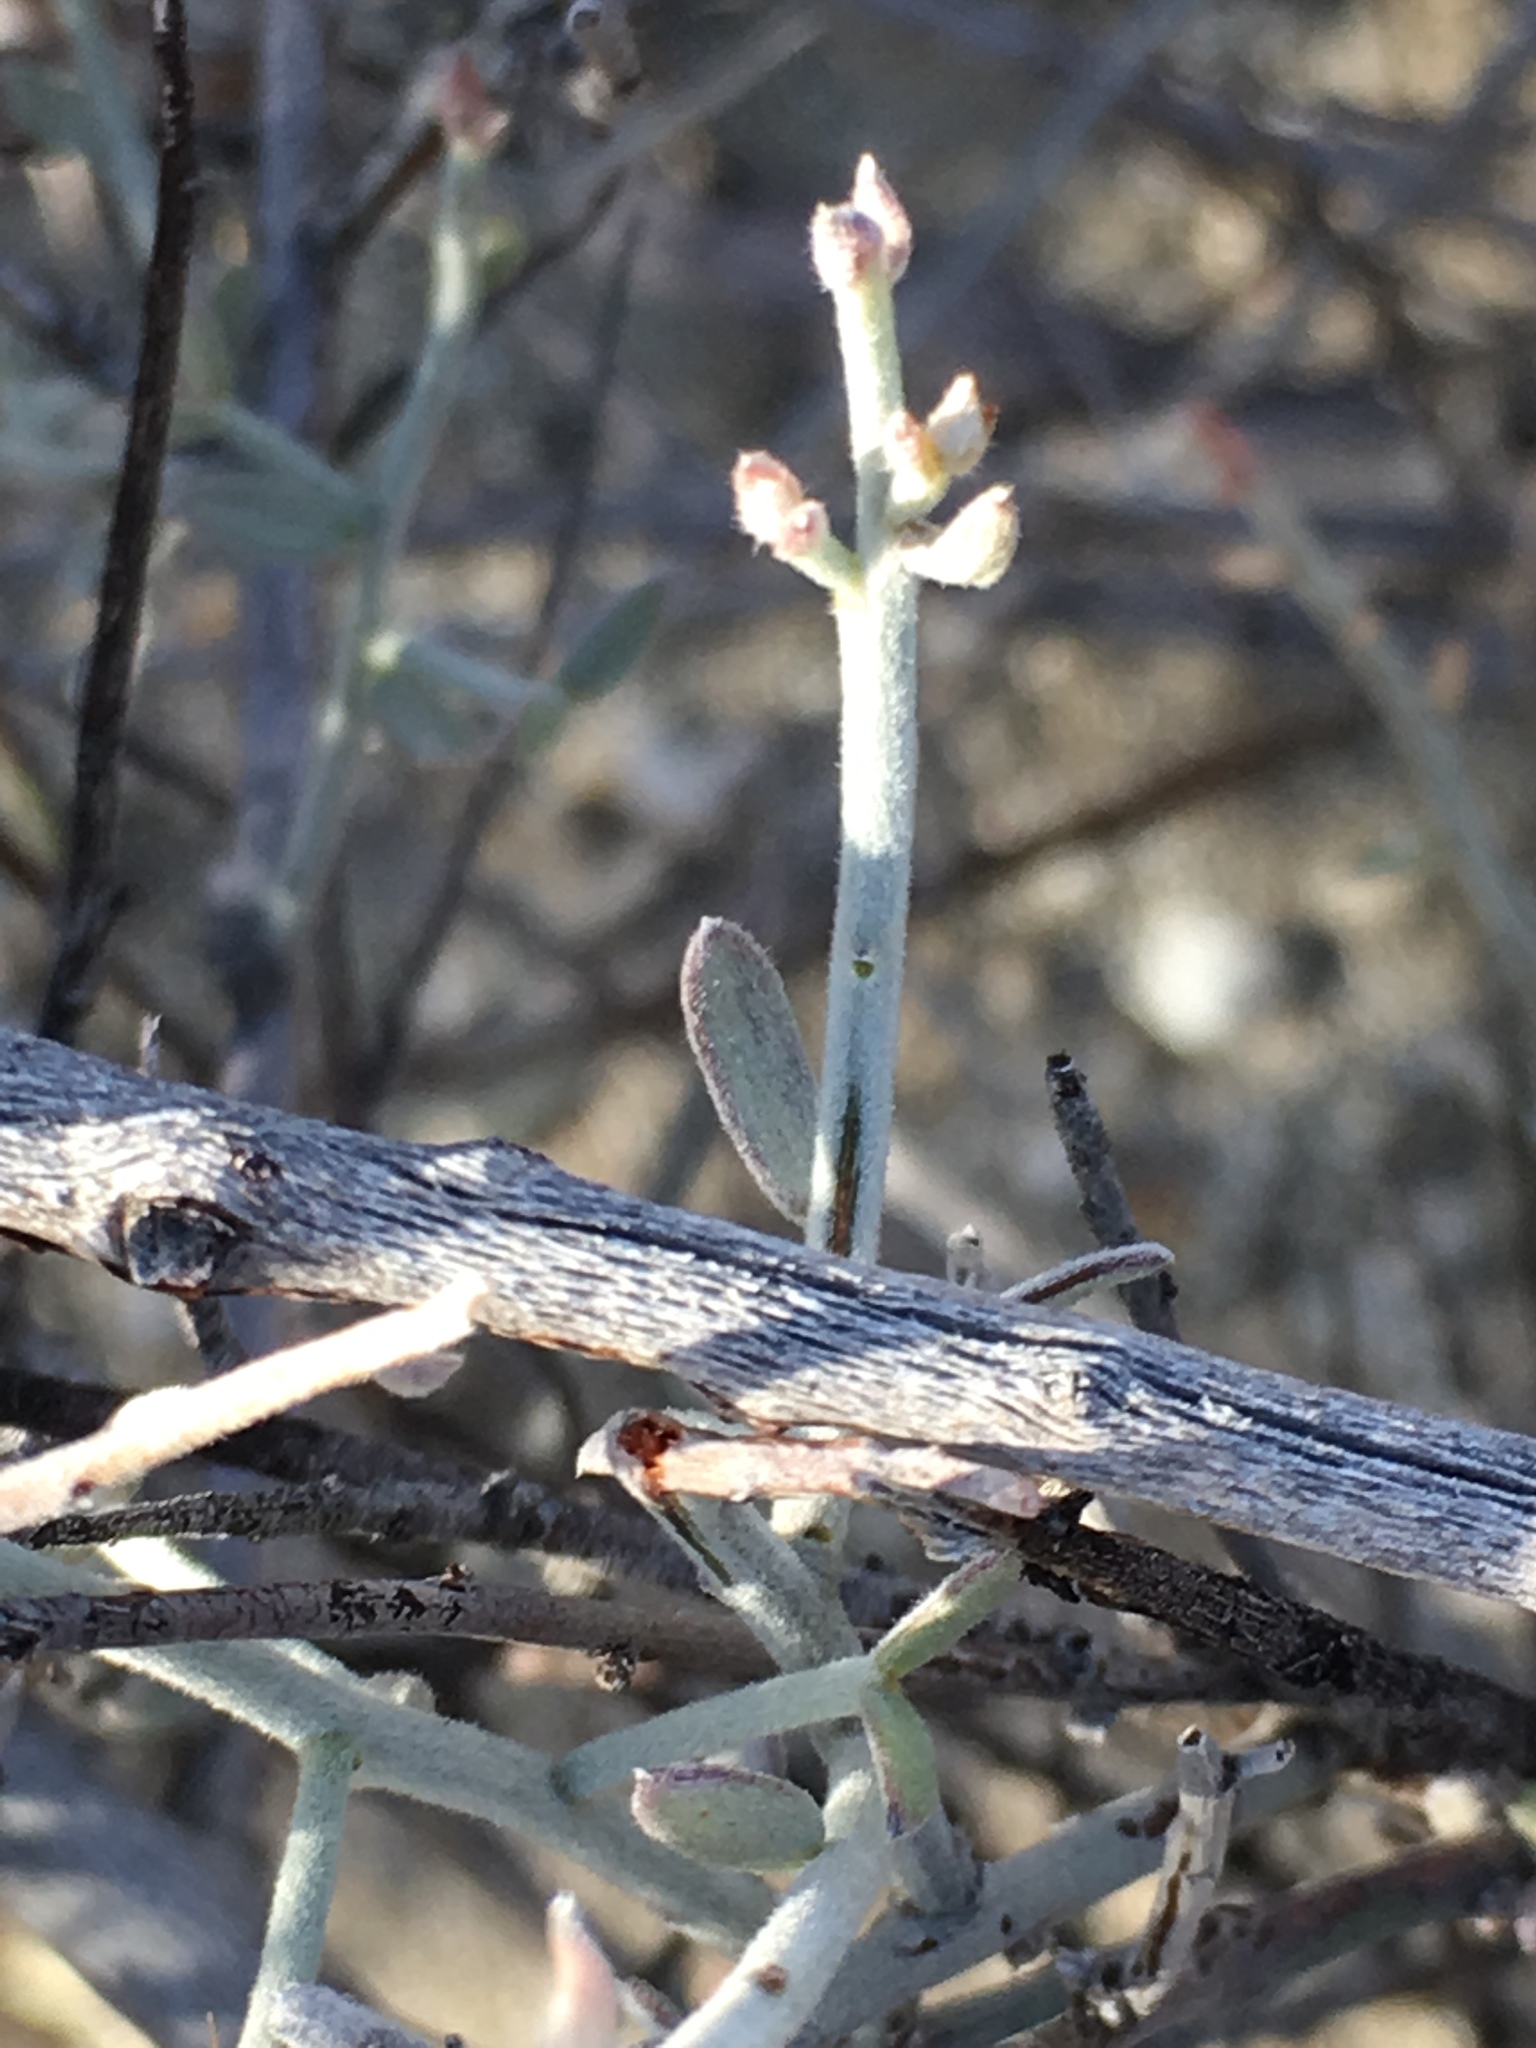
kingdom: Plantae
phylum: Tracheophyta
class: Magnoliopsida
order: Zygophyllales
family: Krameriaceae
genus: Krameria
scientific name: Krameria bicolor
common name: White ratany
